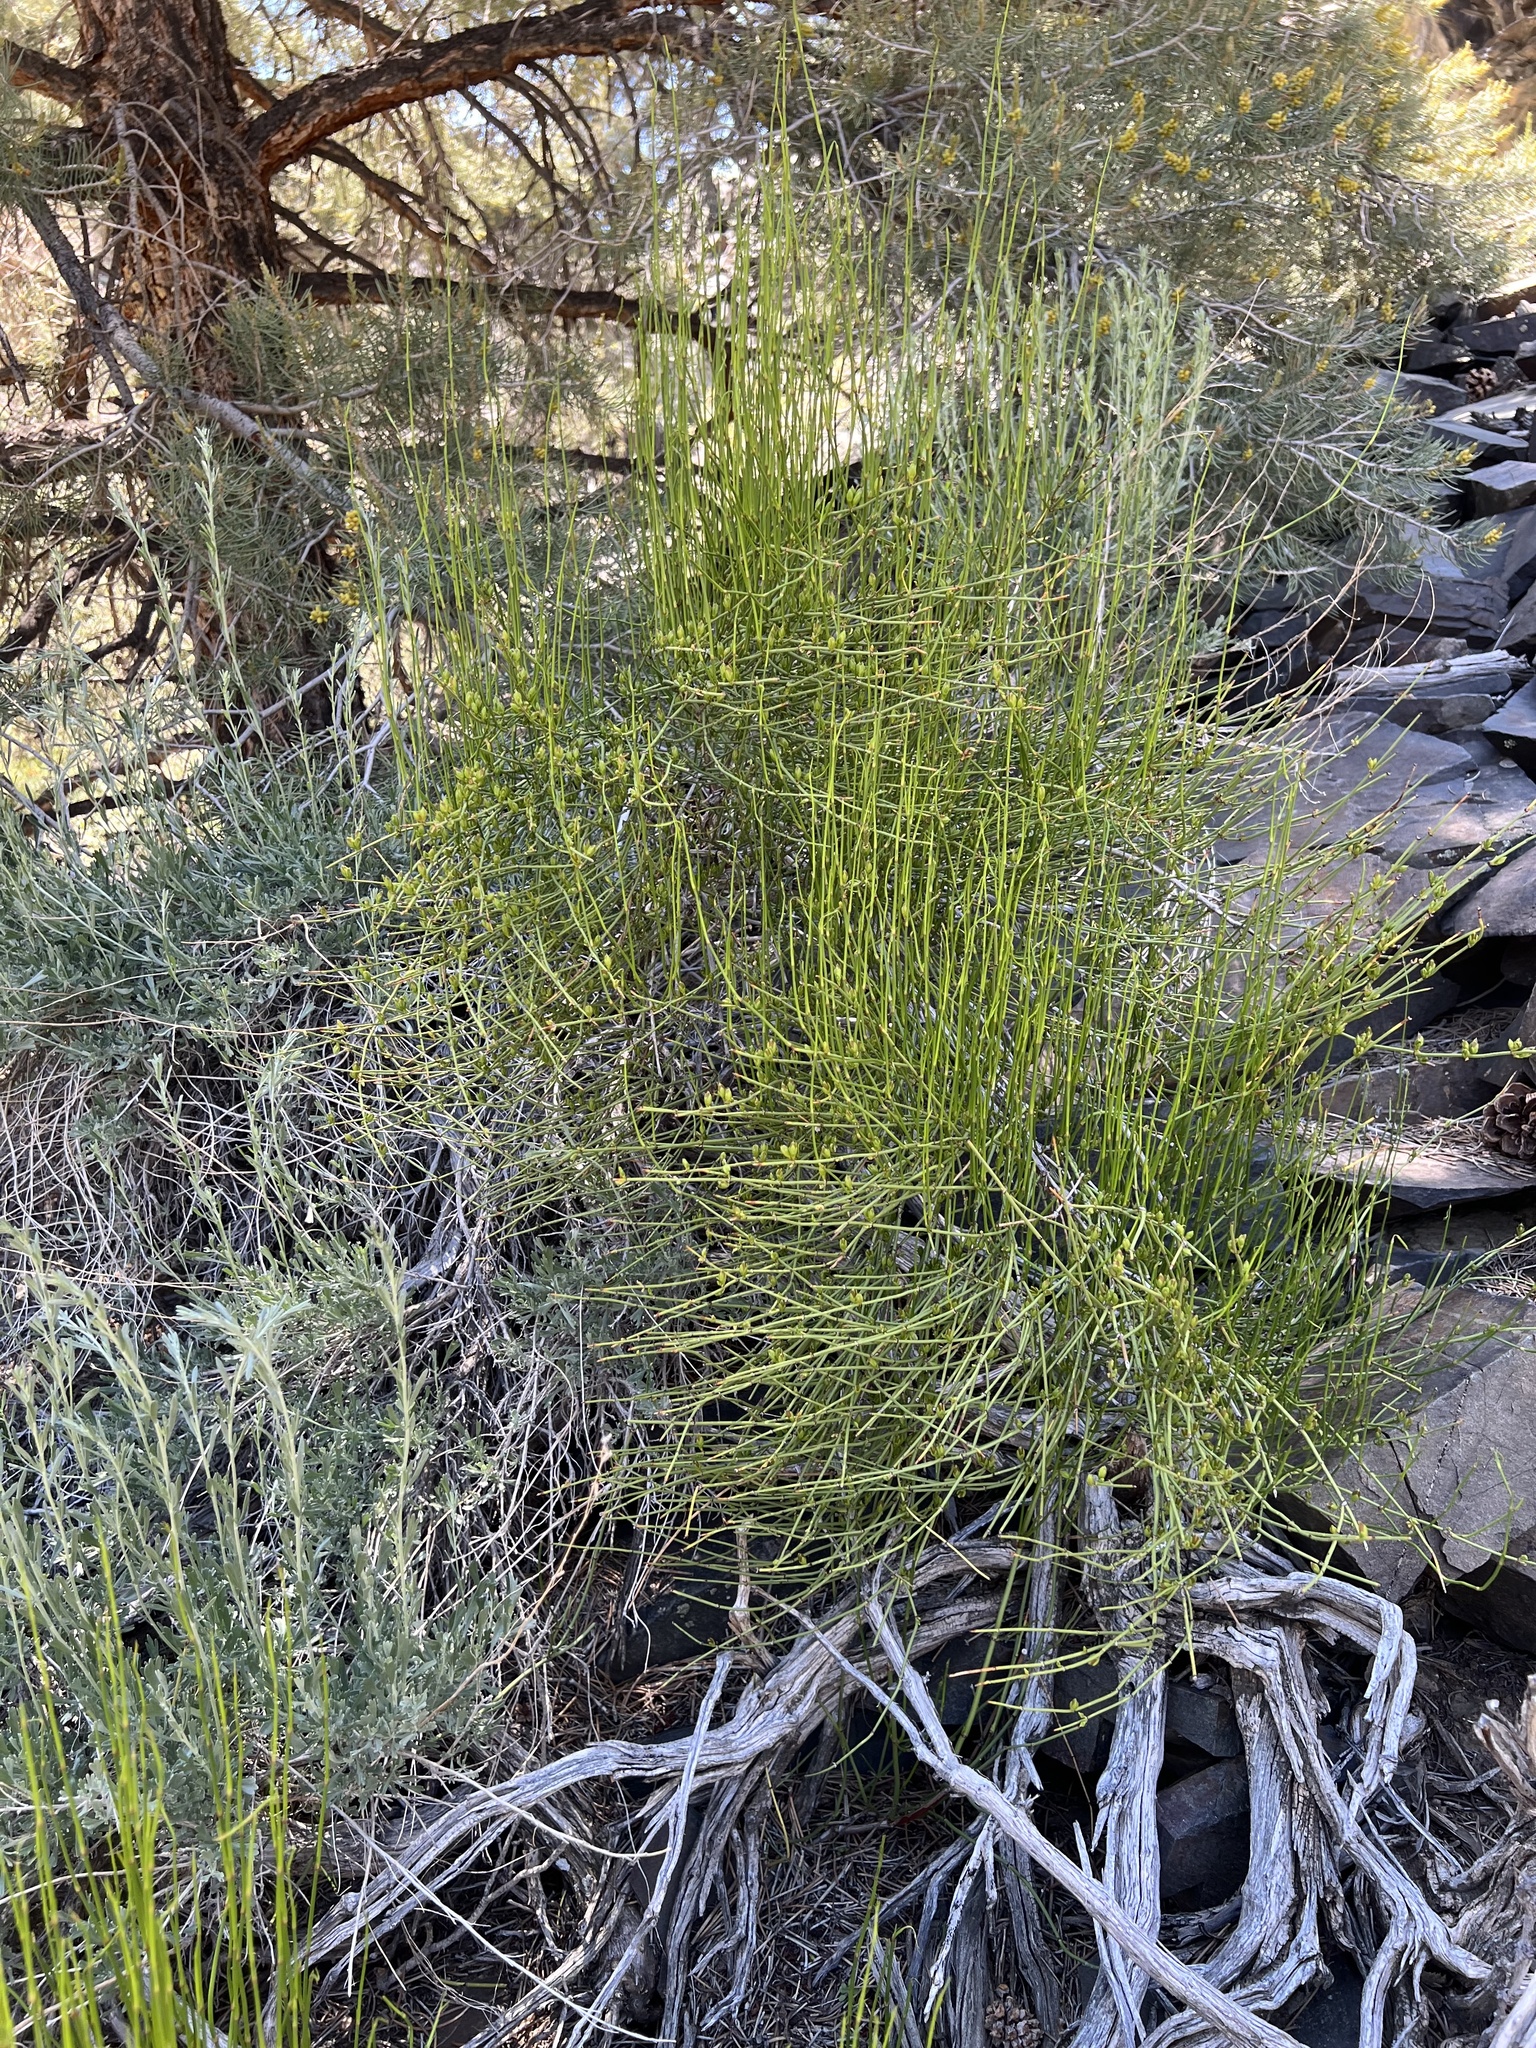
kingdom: Plantae
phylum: Tracheophyta
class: Gnetopsida
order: Ephedrales
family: Ephedraceae
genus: Ephedra
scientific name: Ephedra viridis
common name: Green ephedra
